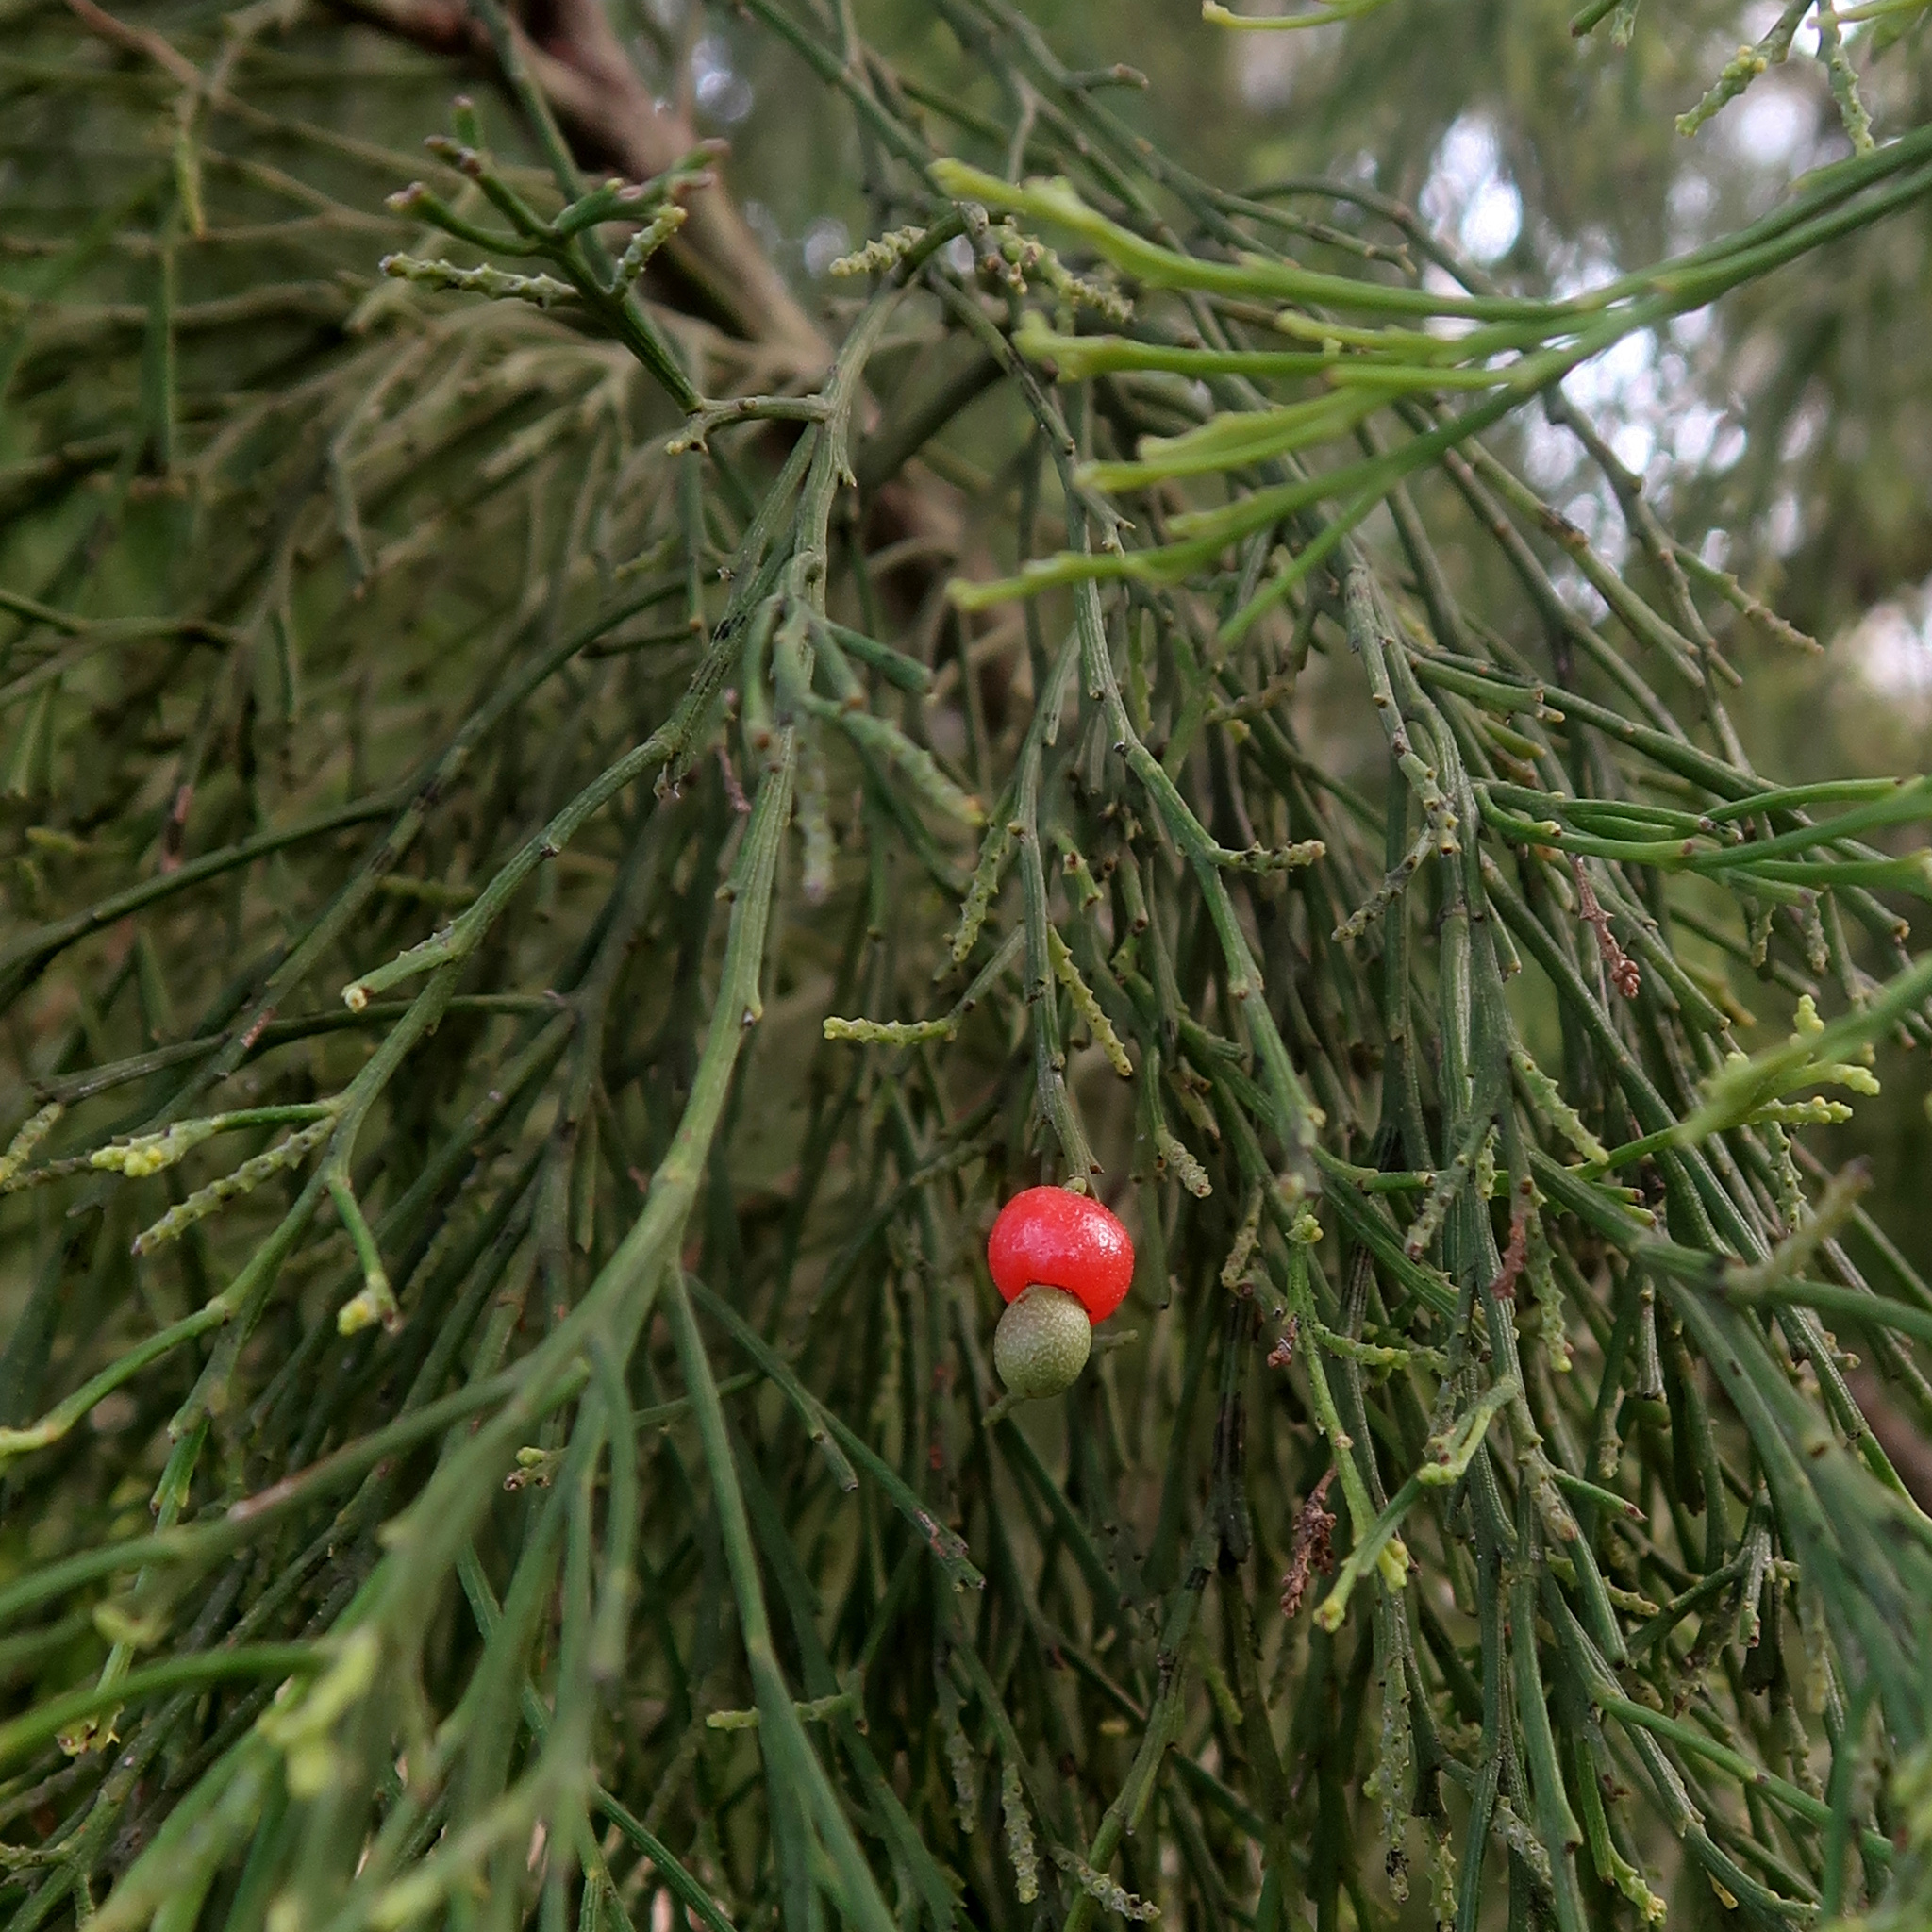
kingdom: Plantae
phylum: Tracheophyta
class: Magnoliopsida
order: Santalales
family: Santalaceae
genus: Exocarpos
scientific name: Exocarpos cupressiformis
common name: Cherry ballart
